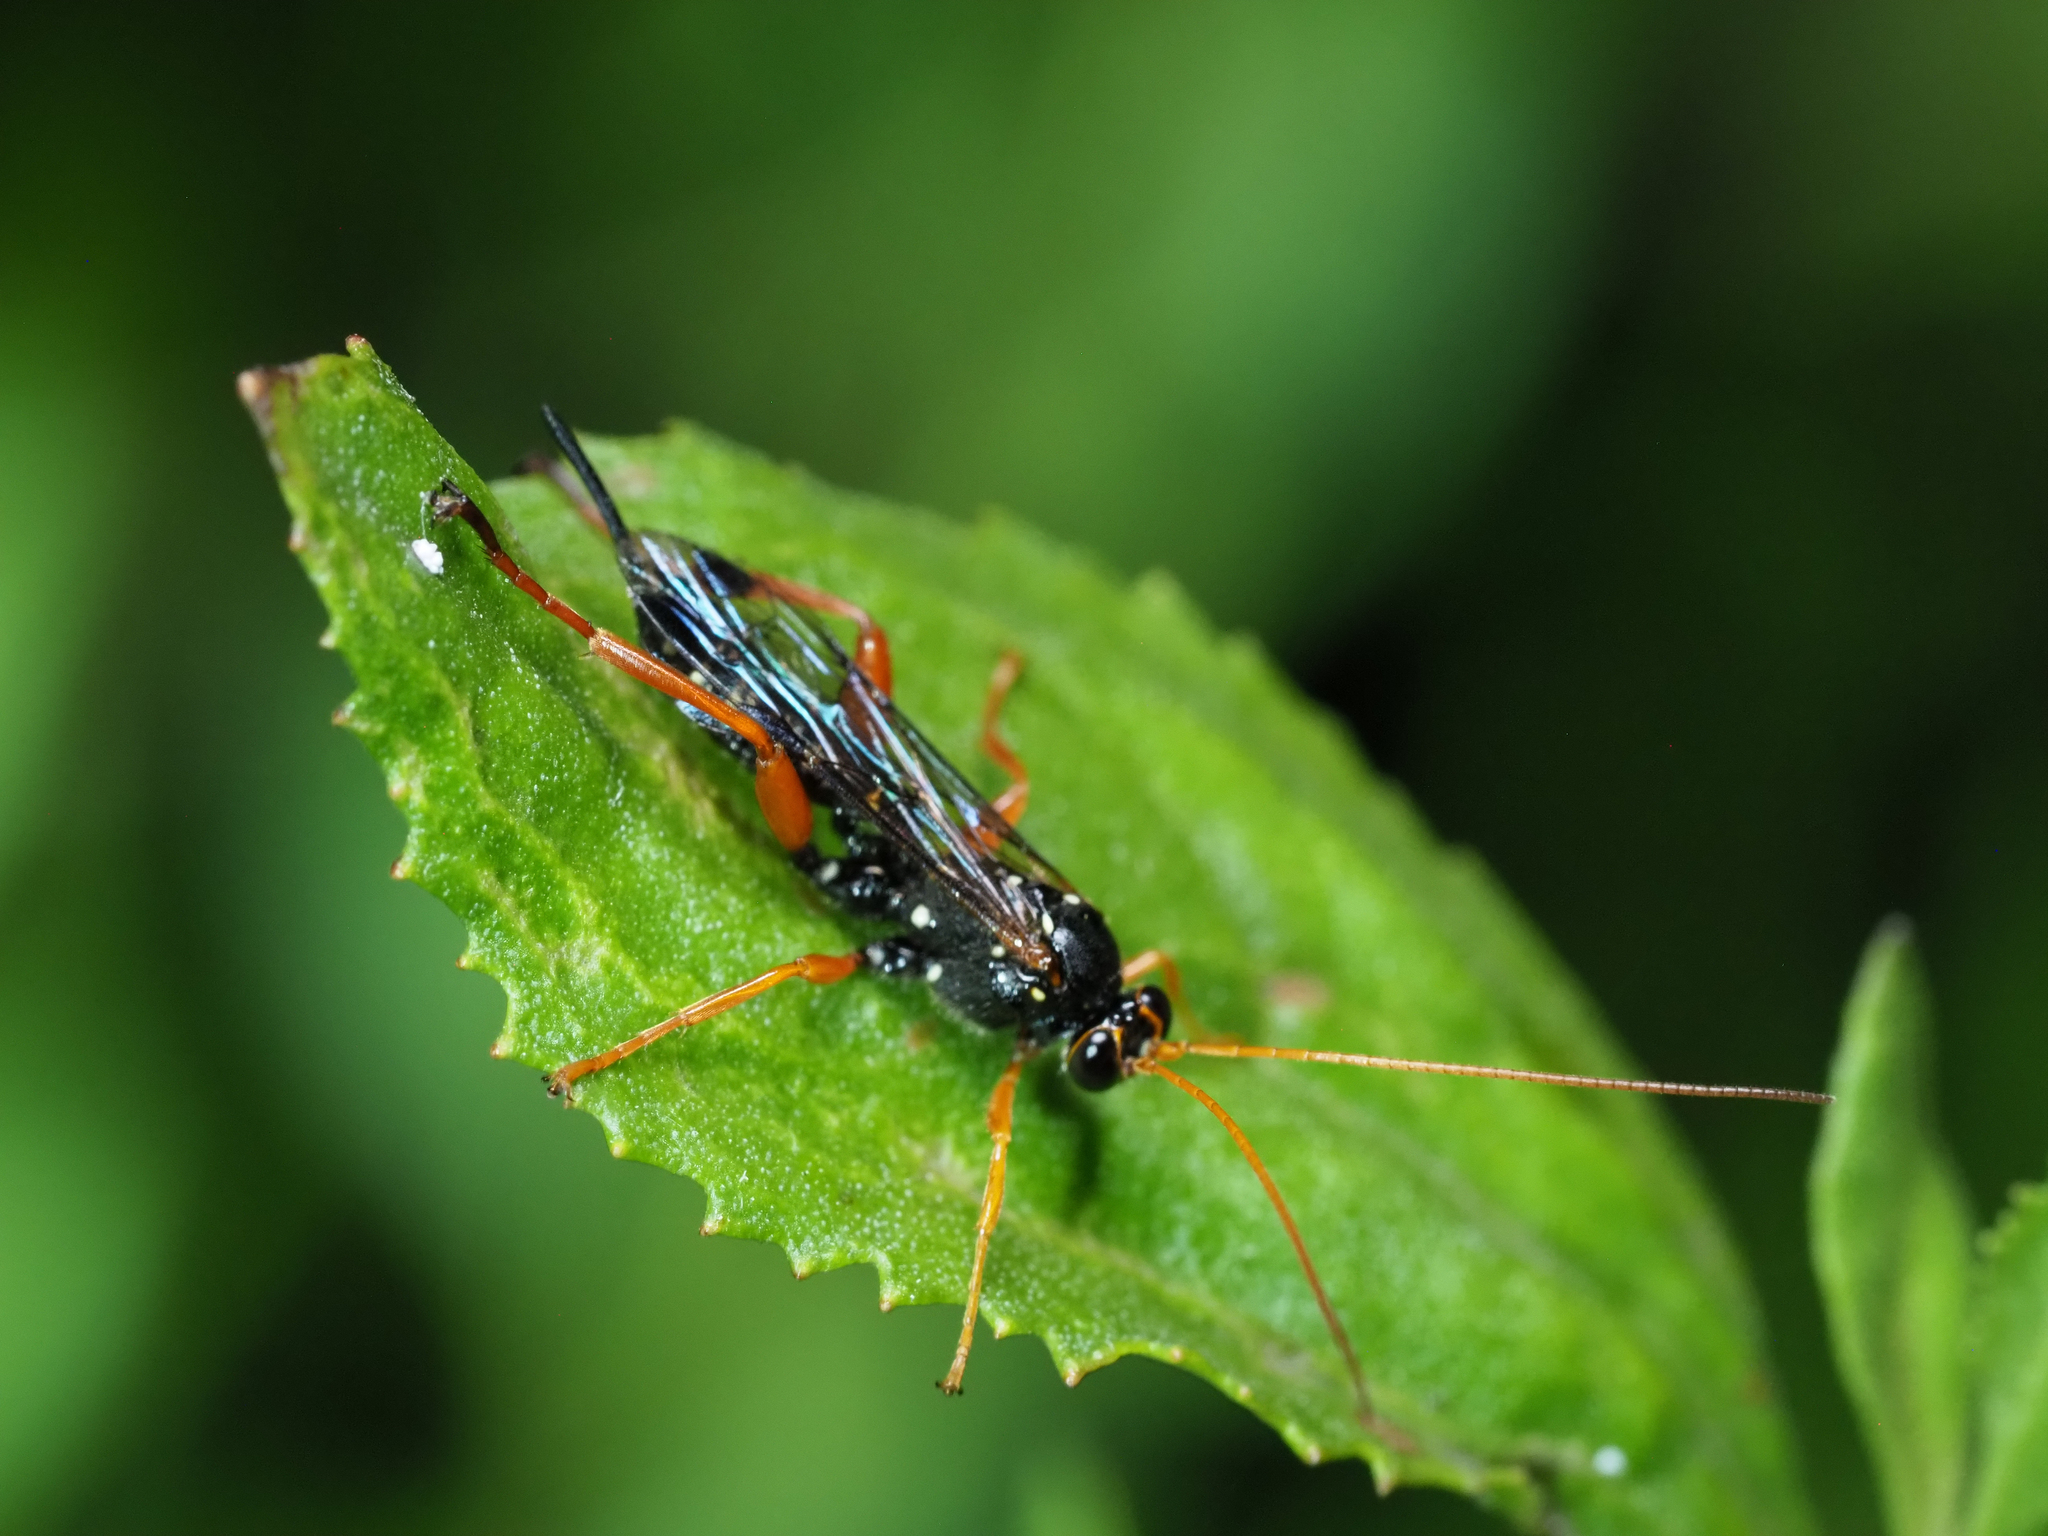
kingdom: Animalia
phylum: Arthropoda
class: Insecta
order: Hymenoptera
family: Ichneumonidae
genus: Echthromorpha
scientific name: Echthromorpha intricatoria
